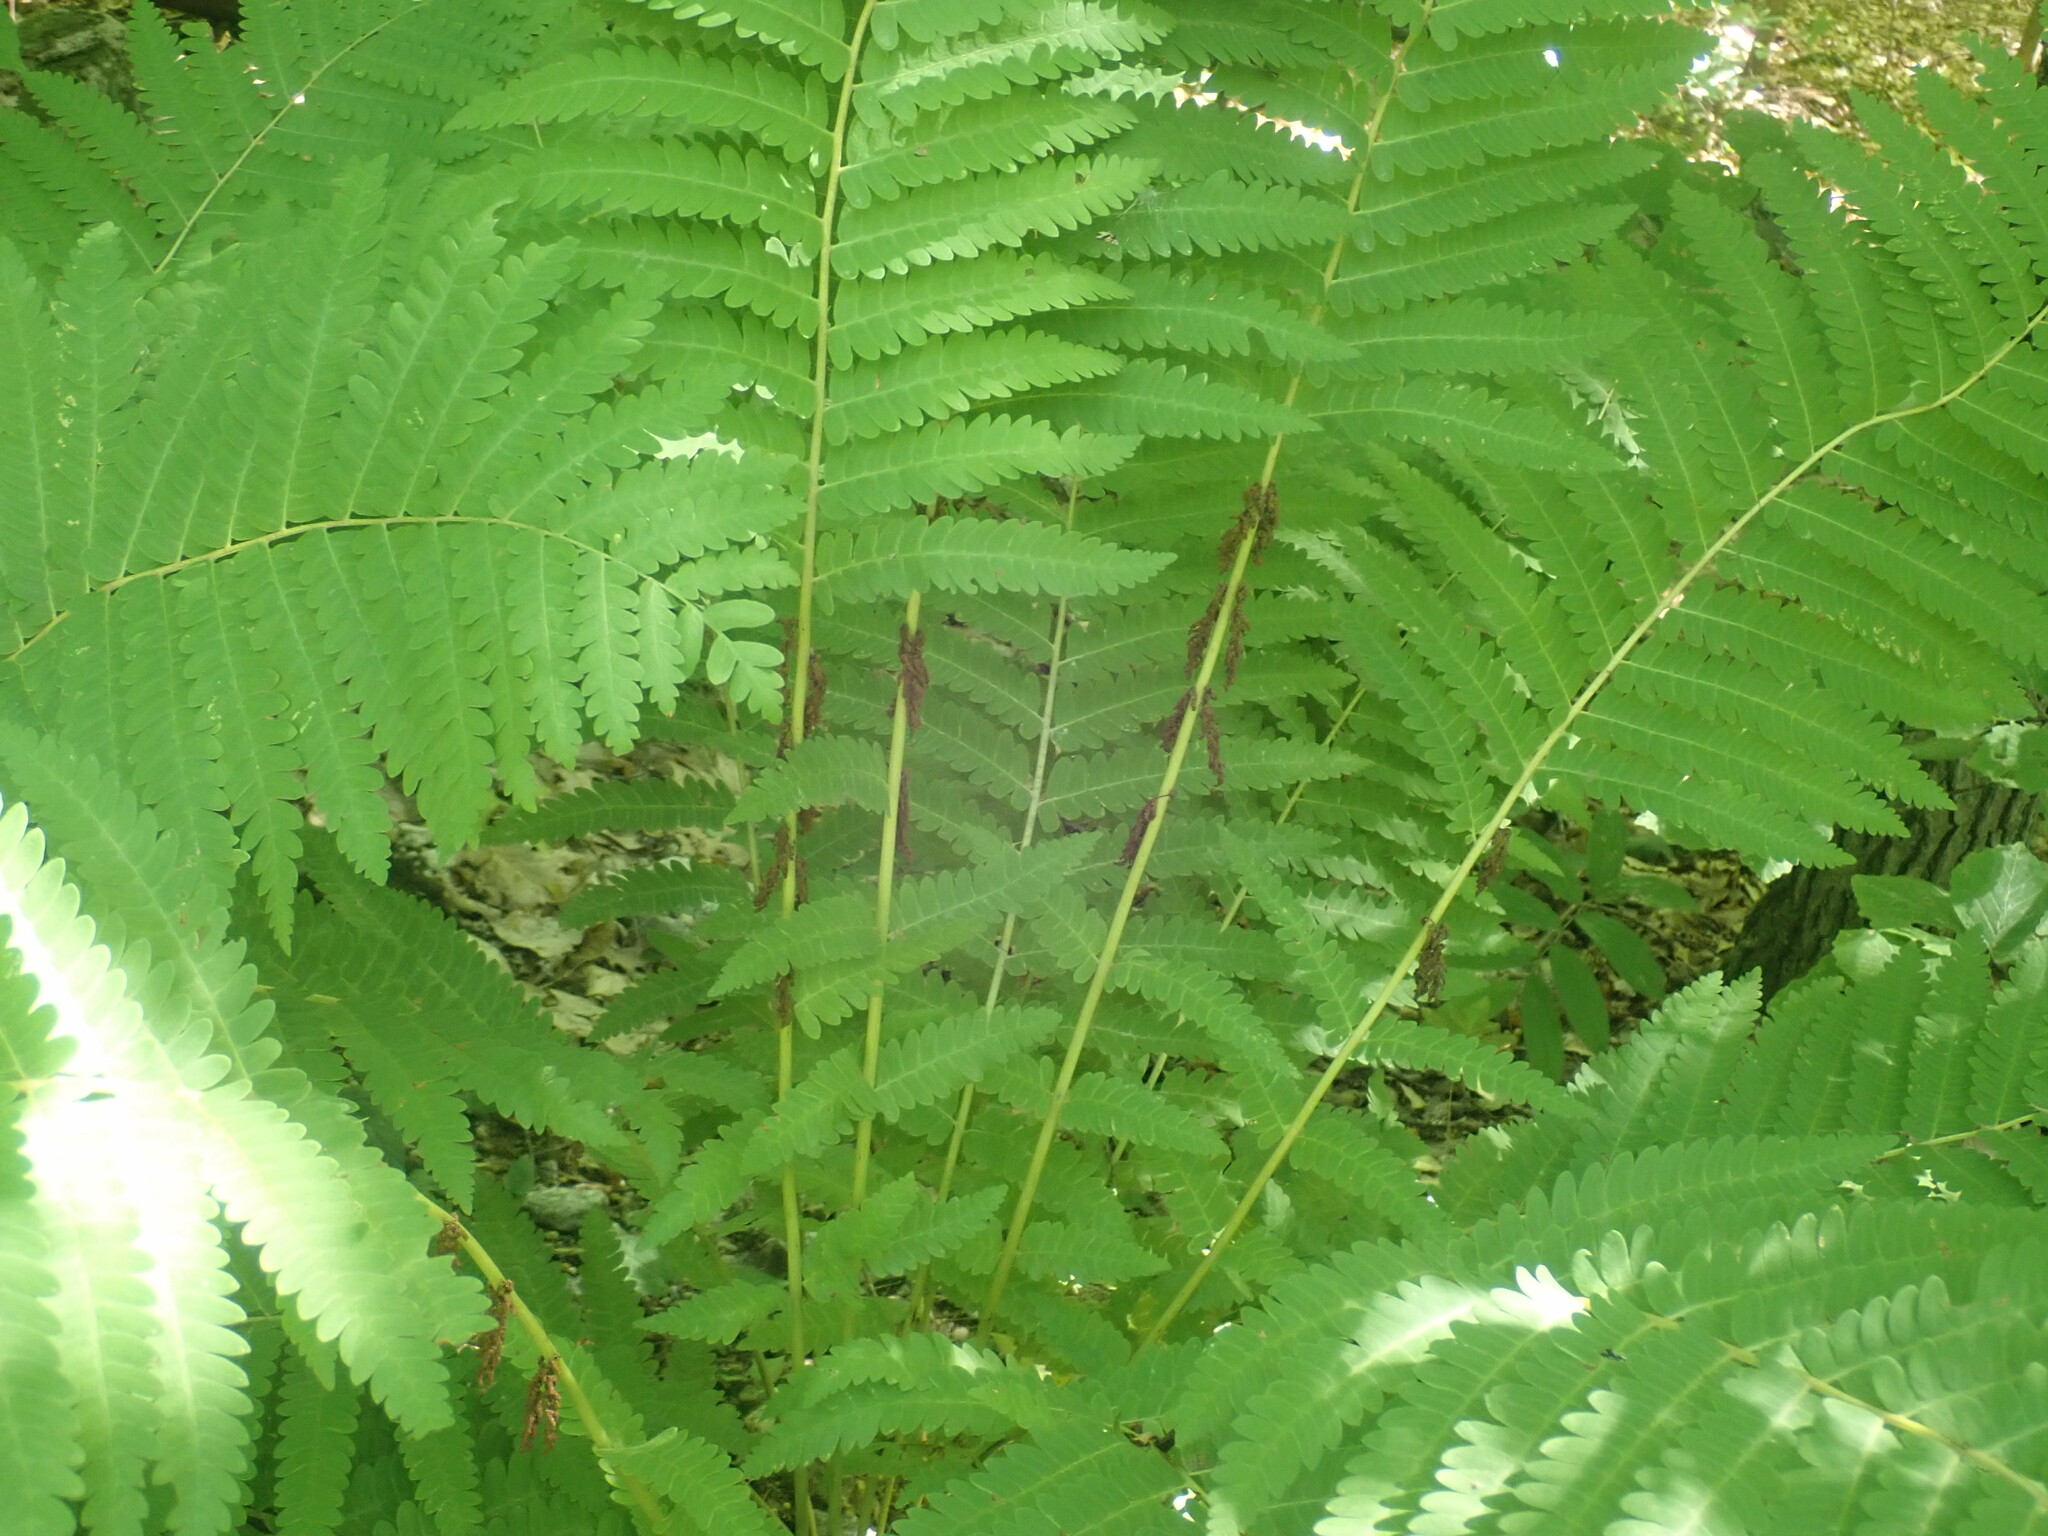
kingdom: Plantae
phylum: Tracheophyta
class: Polypodiopsida
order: Osmundales
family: Osmundaceae
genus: Claytosmunda
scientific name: Claytosmunda claytoniana
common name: Clayton's fern
